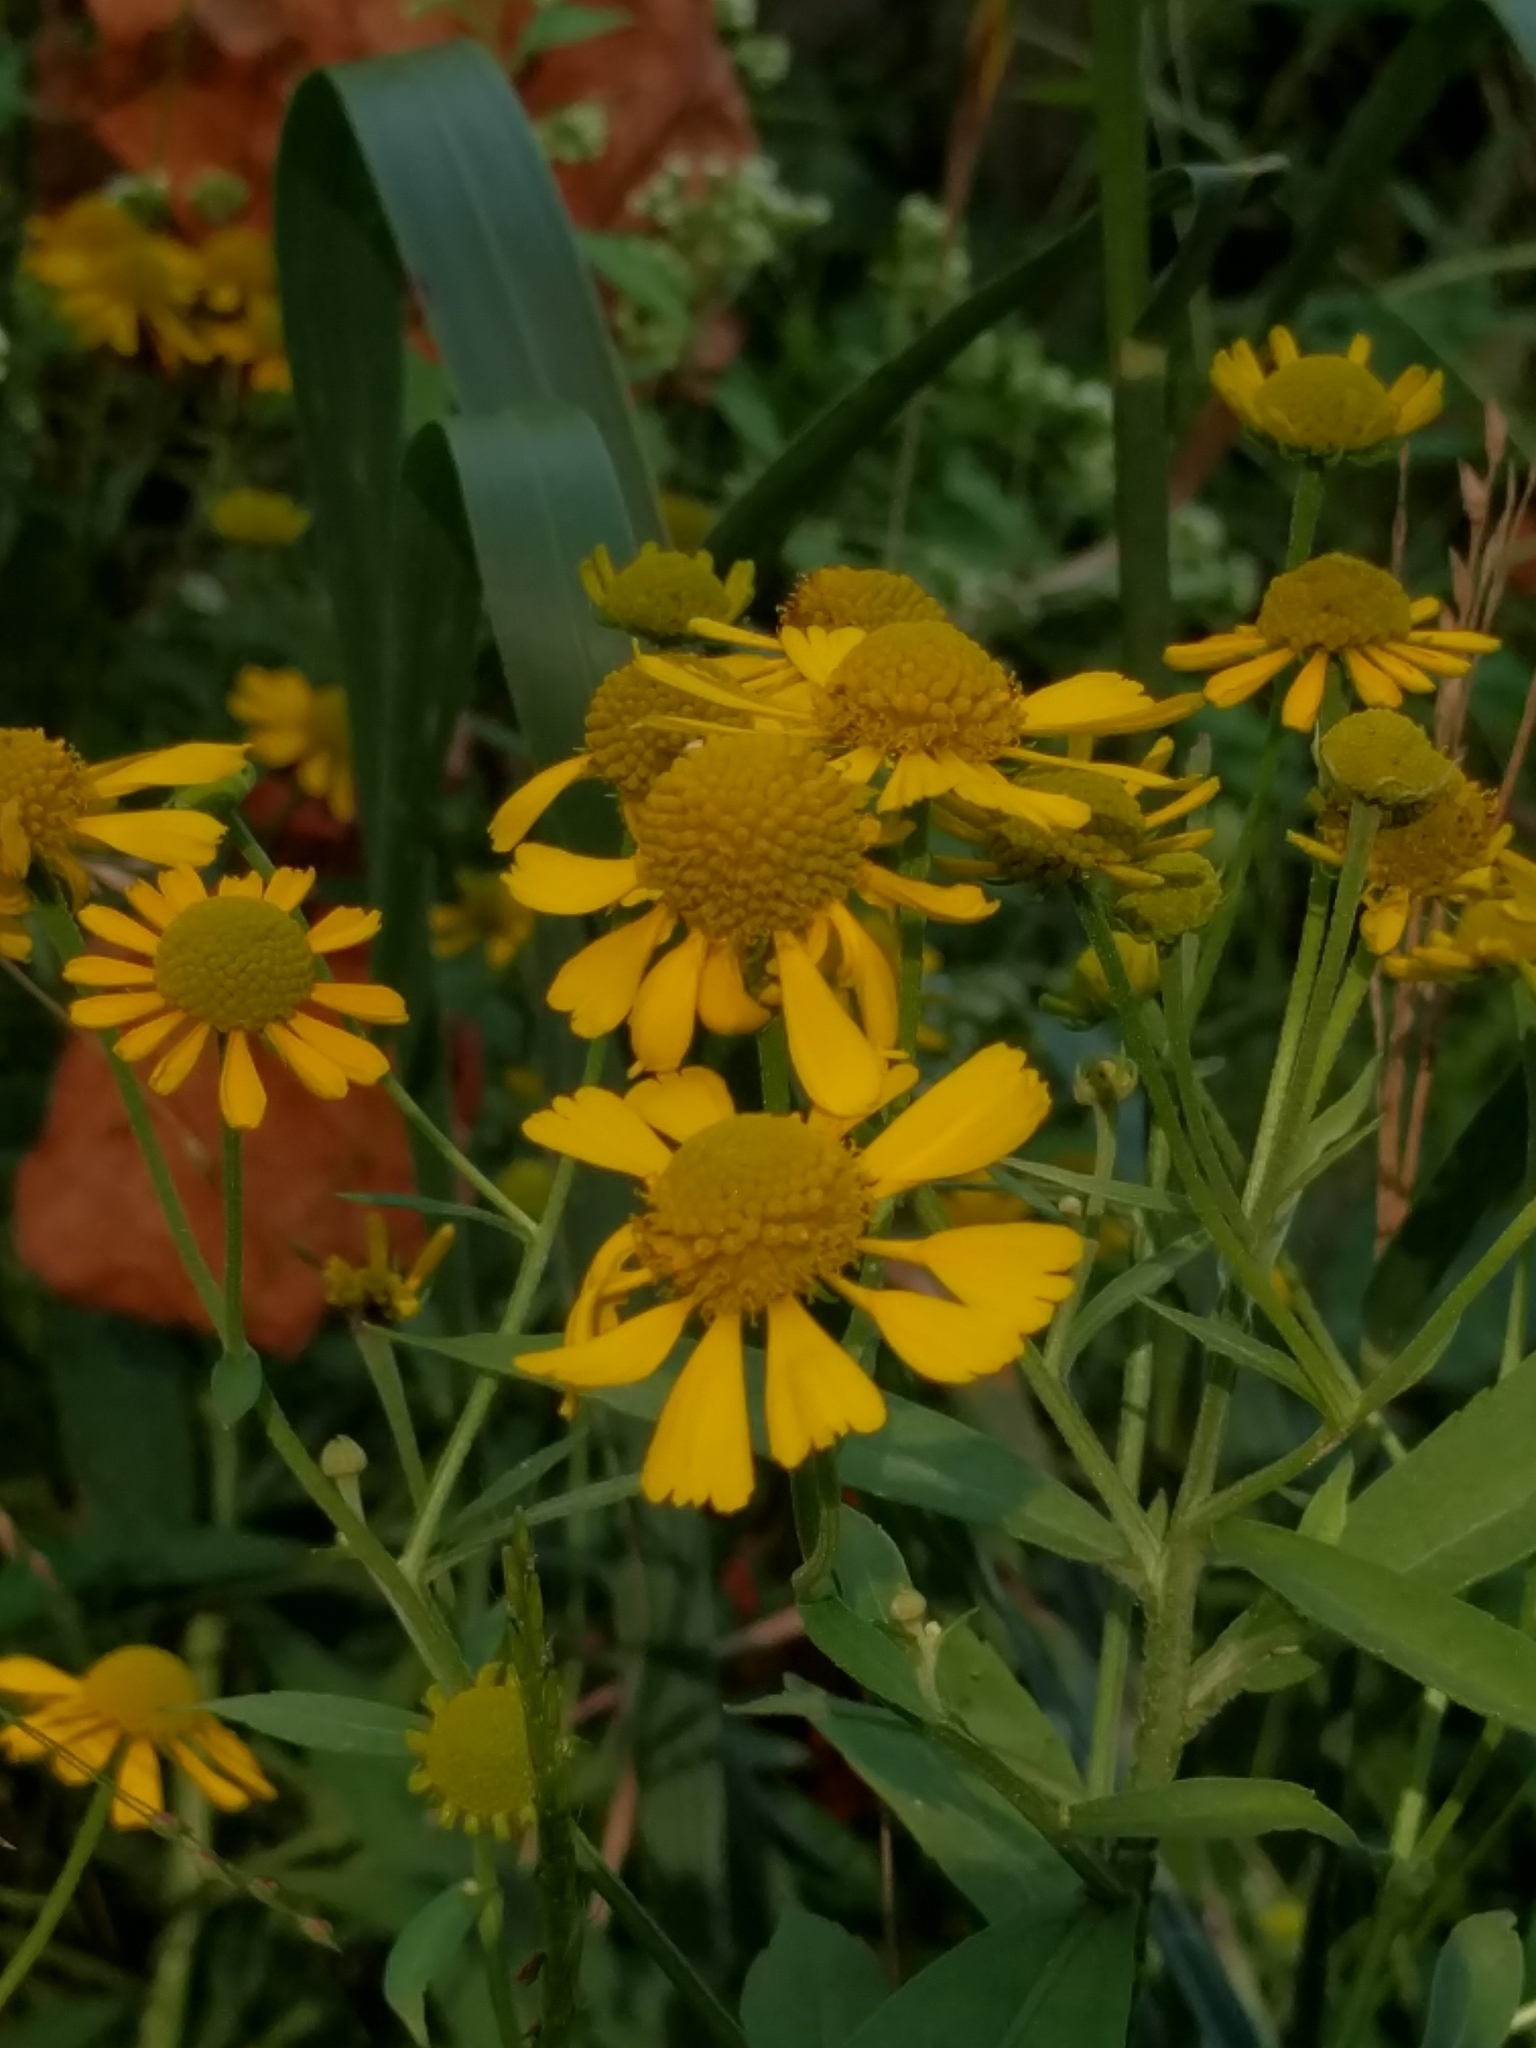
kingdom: Plantae
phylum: Tracheophyta
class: Magnoliopsida
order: Asterales
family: Asteraceae
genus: Helenium
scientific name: Helenium autumnale
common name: Sneezeweed
